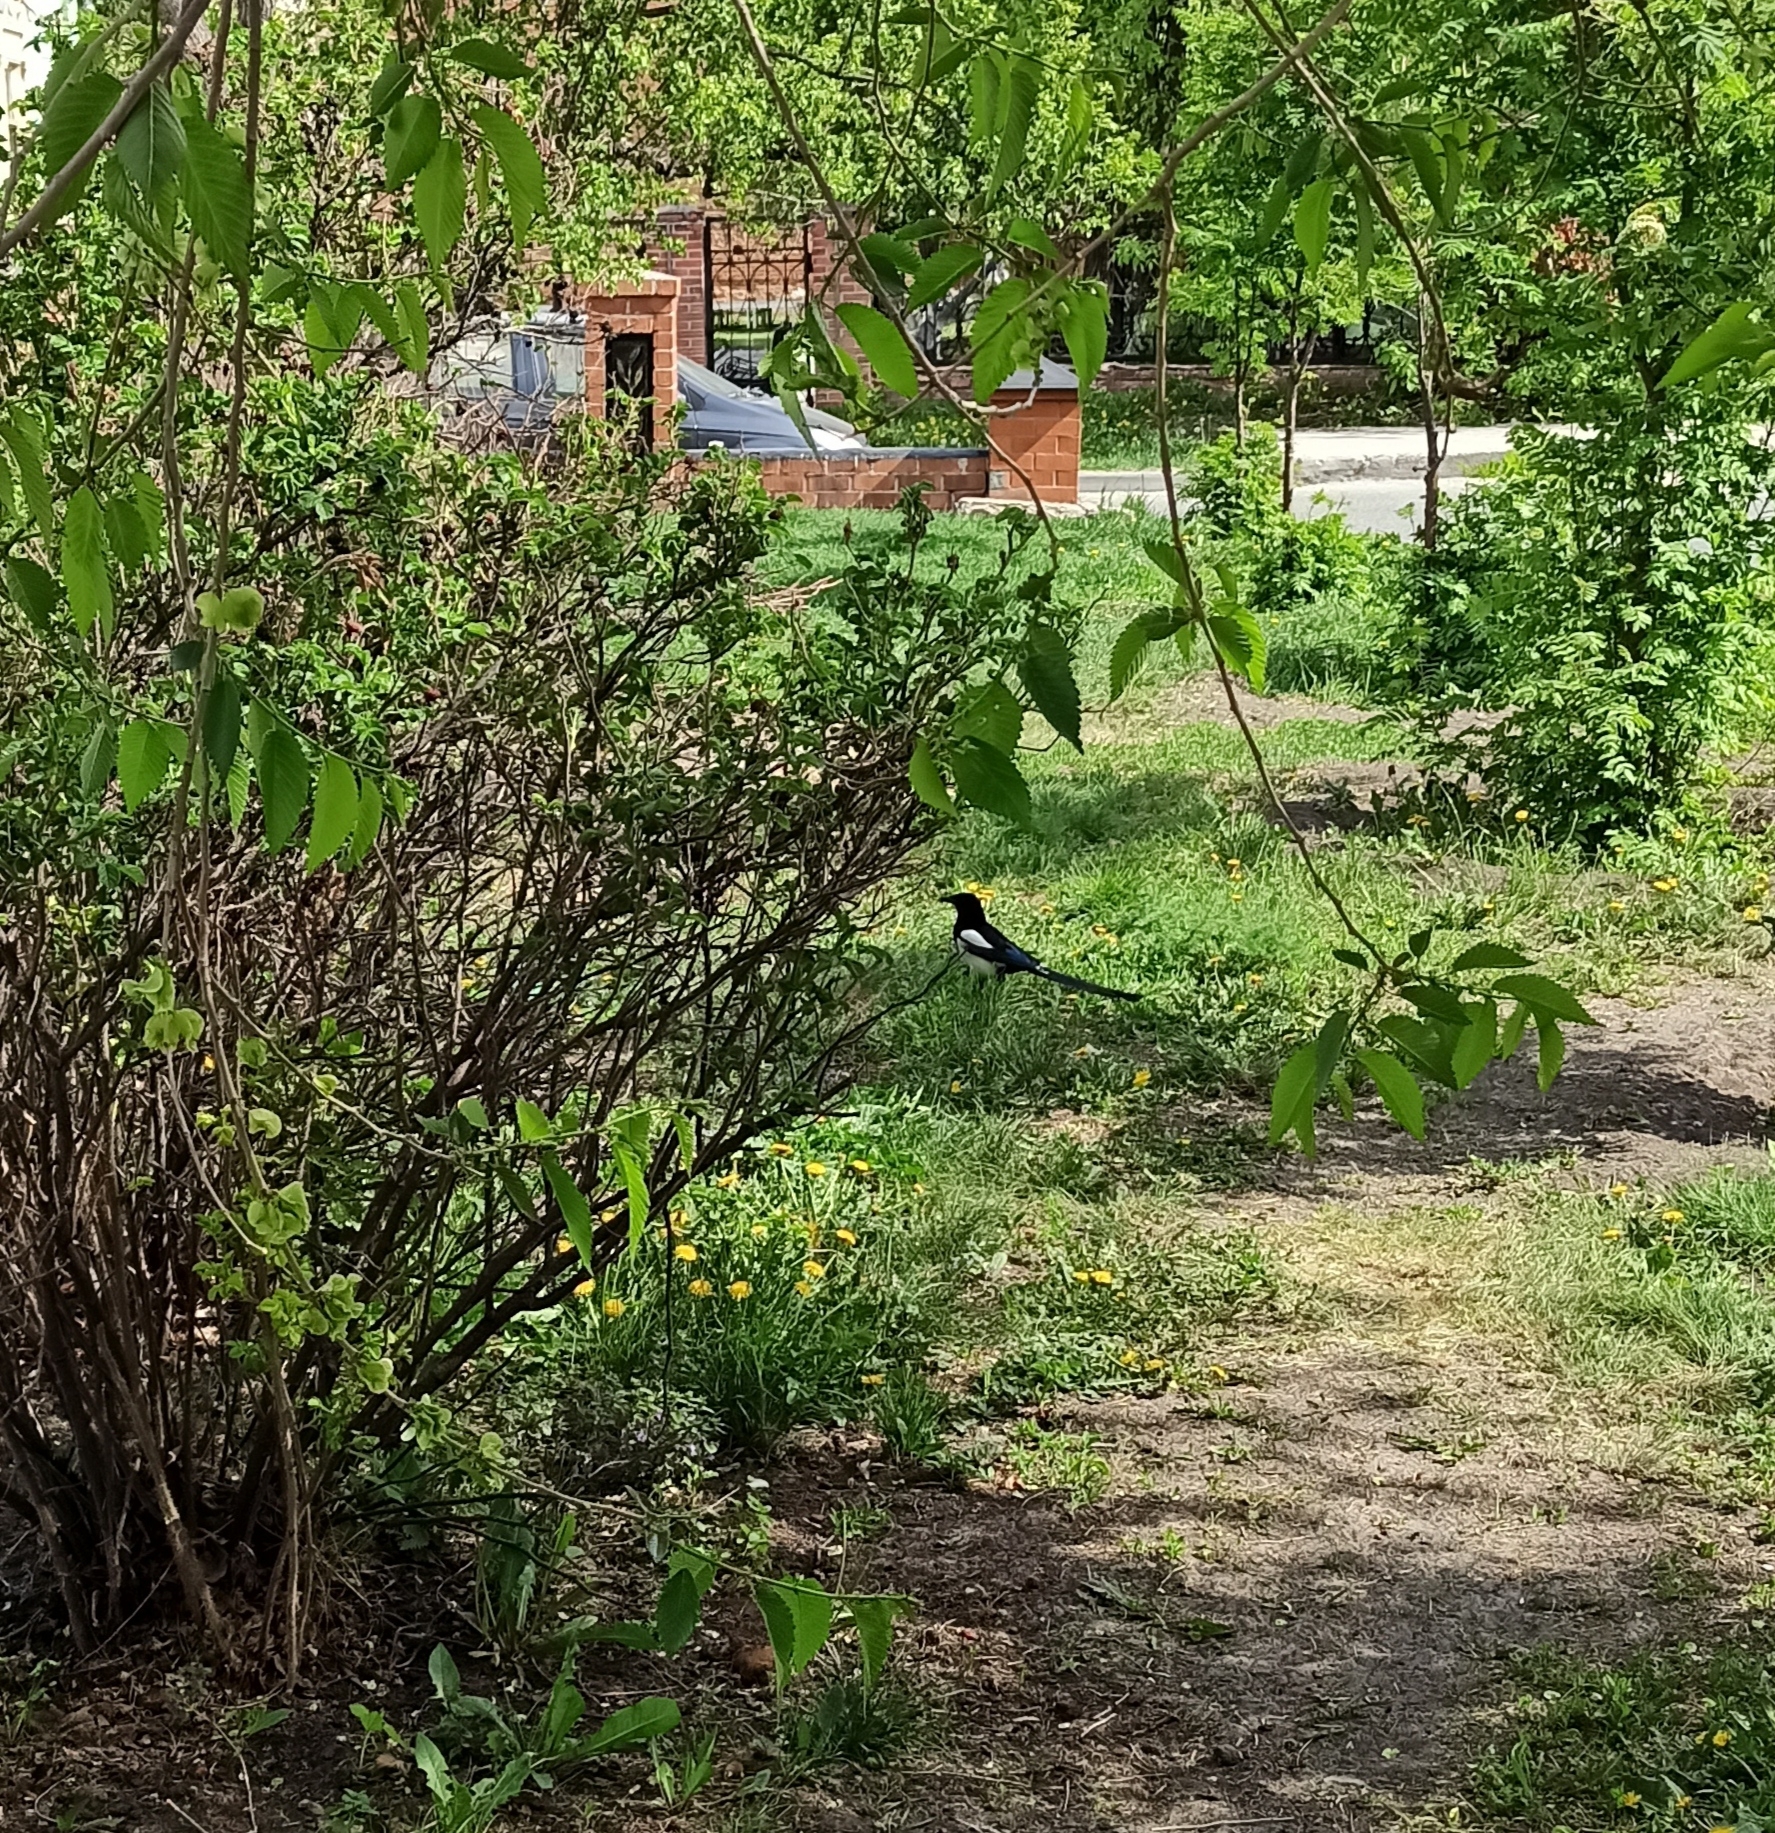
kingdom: Animalia
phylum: Chordata
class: Aves
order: Passeriformes
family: Corvidae
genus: Pica
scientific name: Pica pica
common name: Eurasian magpie
